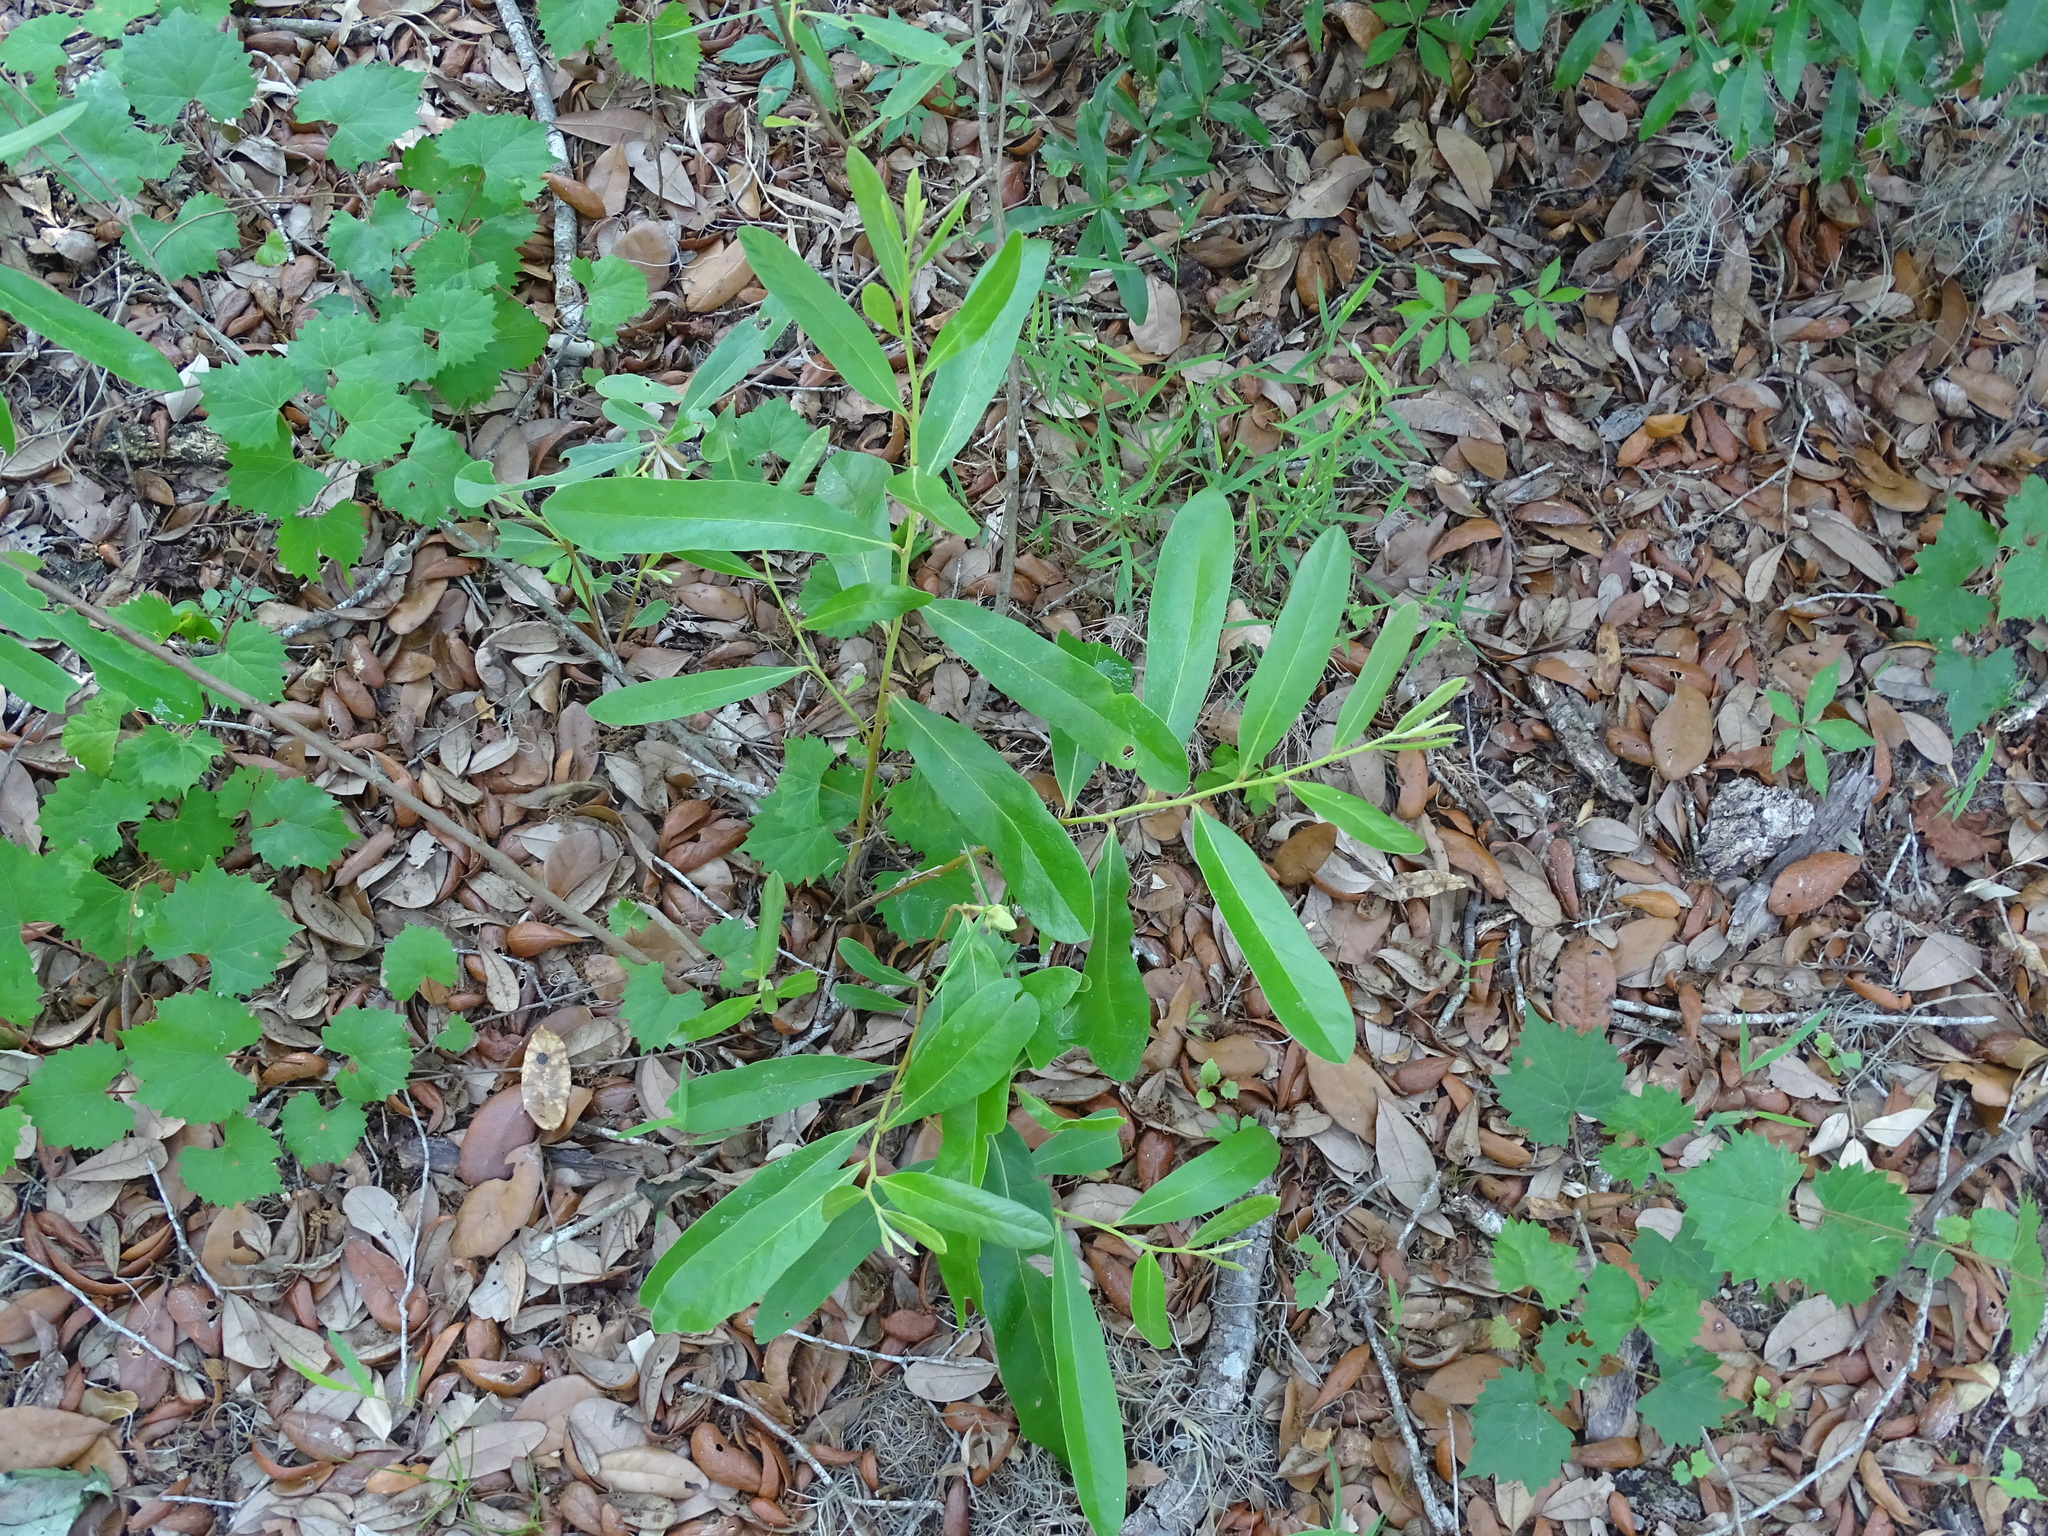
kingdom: Plantae
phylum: Tracheophyta
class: Magnoliopsida
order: Magnoliales
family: Annonaceae
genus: Asimina
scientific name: Asimina pygmaea
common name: Dwarf pawpaw
